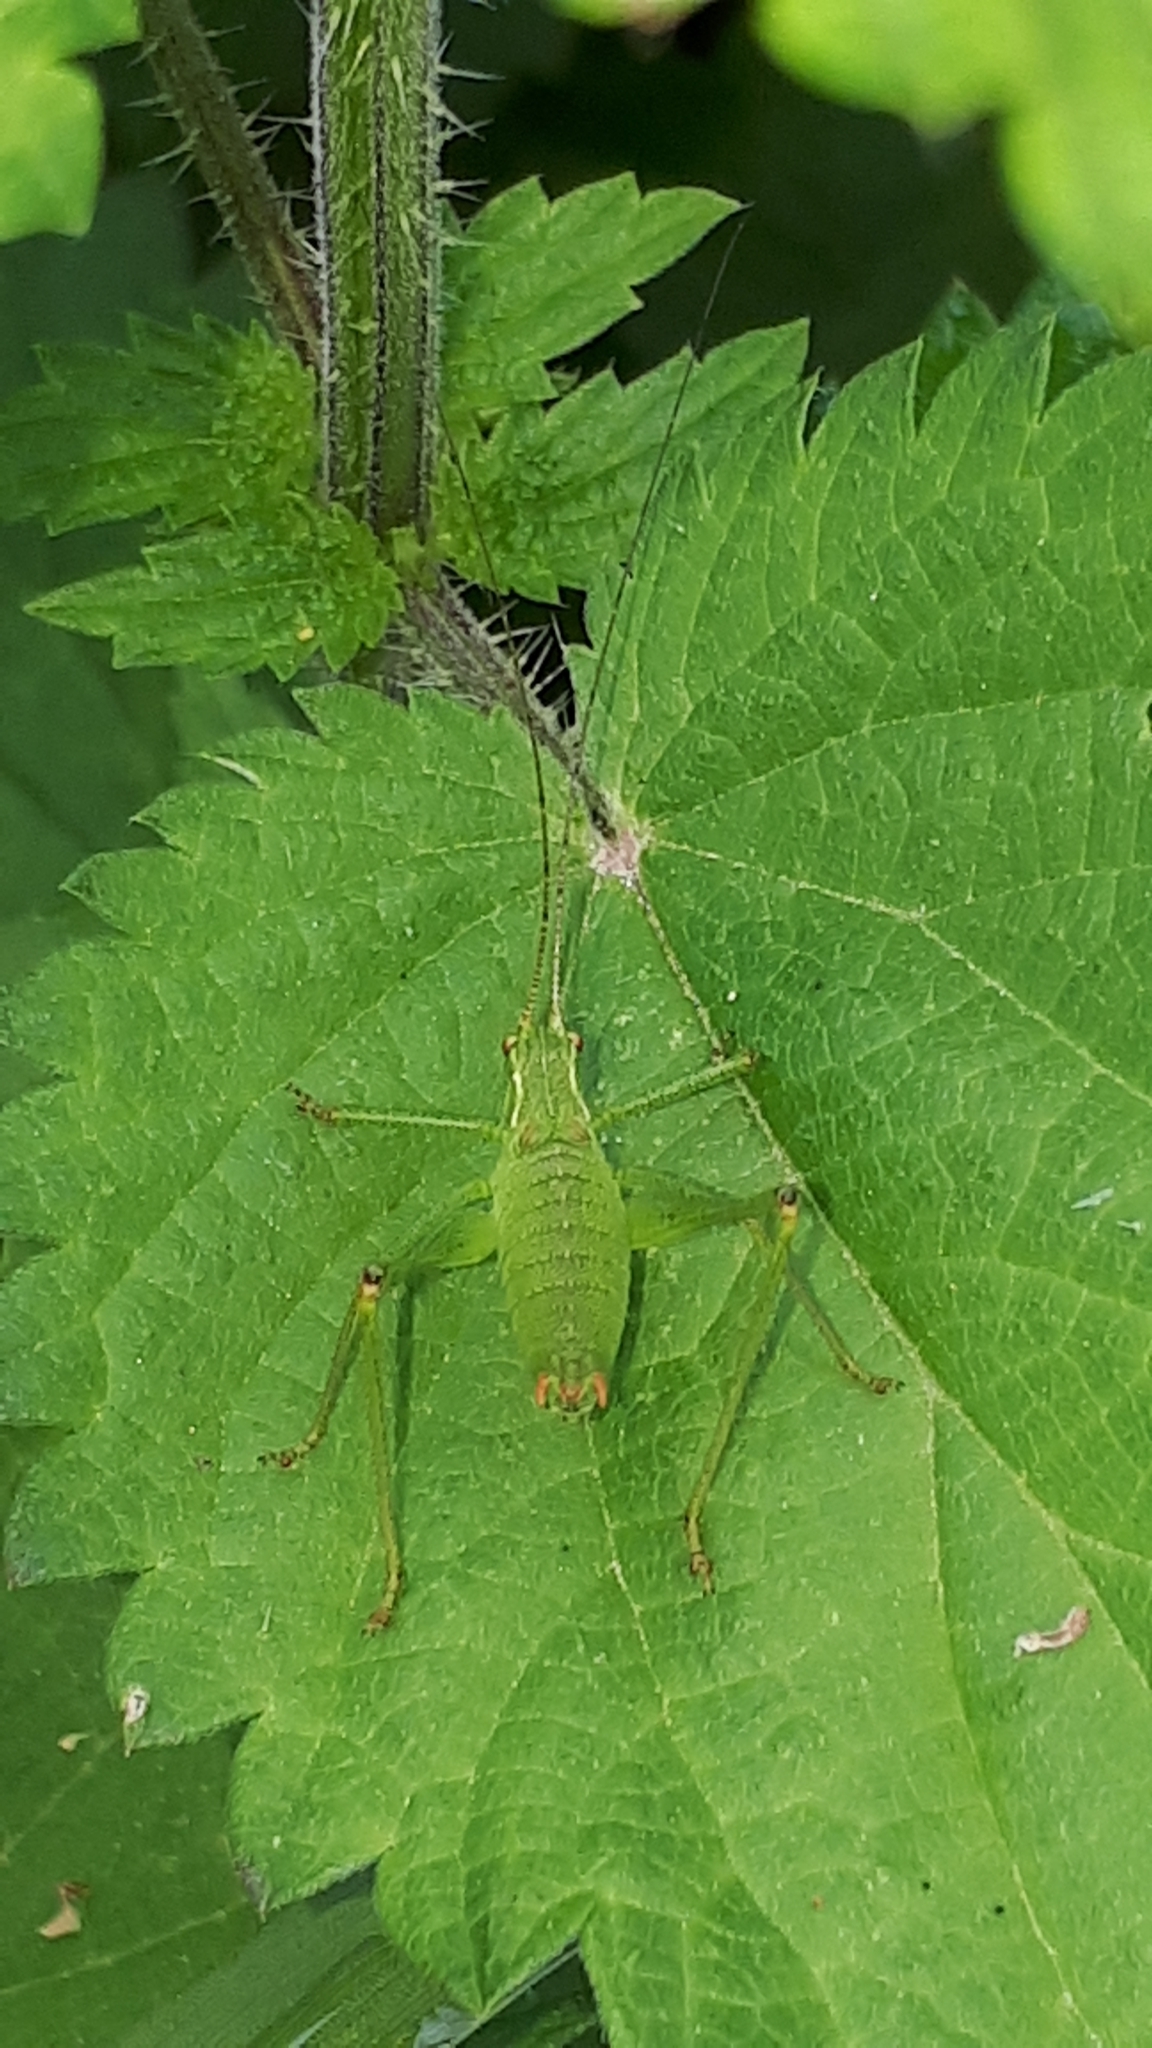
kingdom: Animalia
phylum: Arthropoda
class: Insecta
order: Orthoptera
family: Tettigoniidae
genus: Leptophyes
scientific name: Leptophyes punctatissima
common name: Speckled bush-cricket
